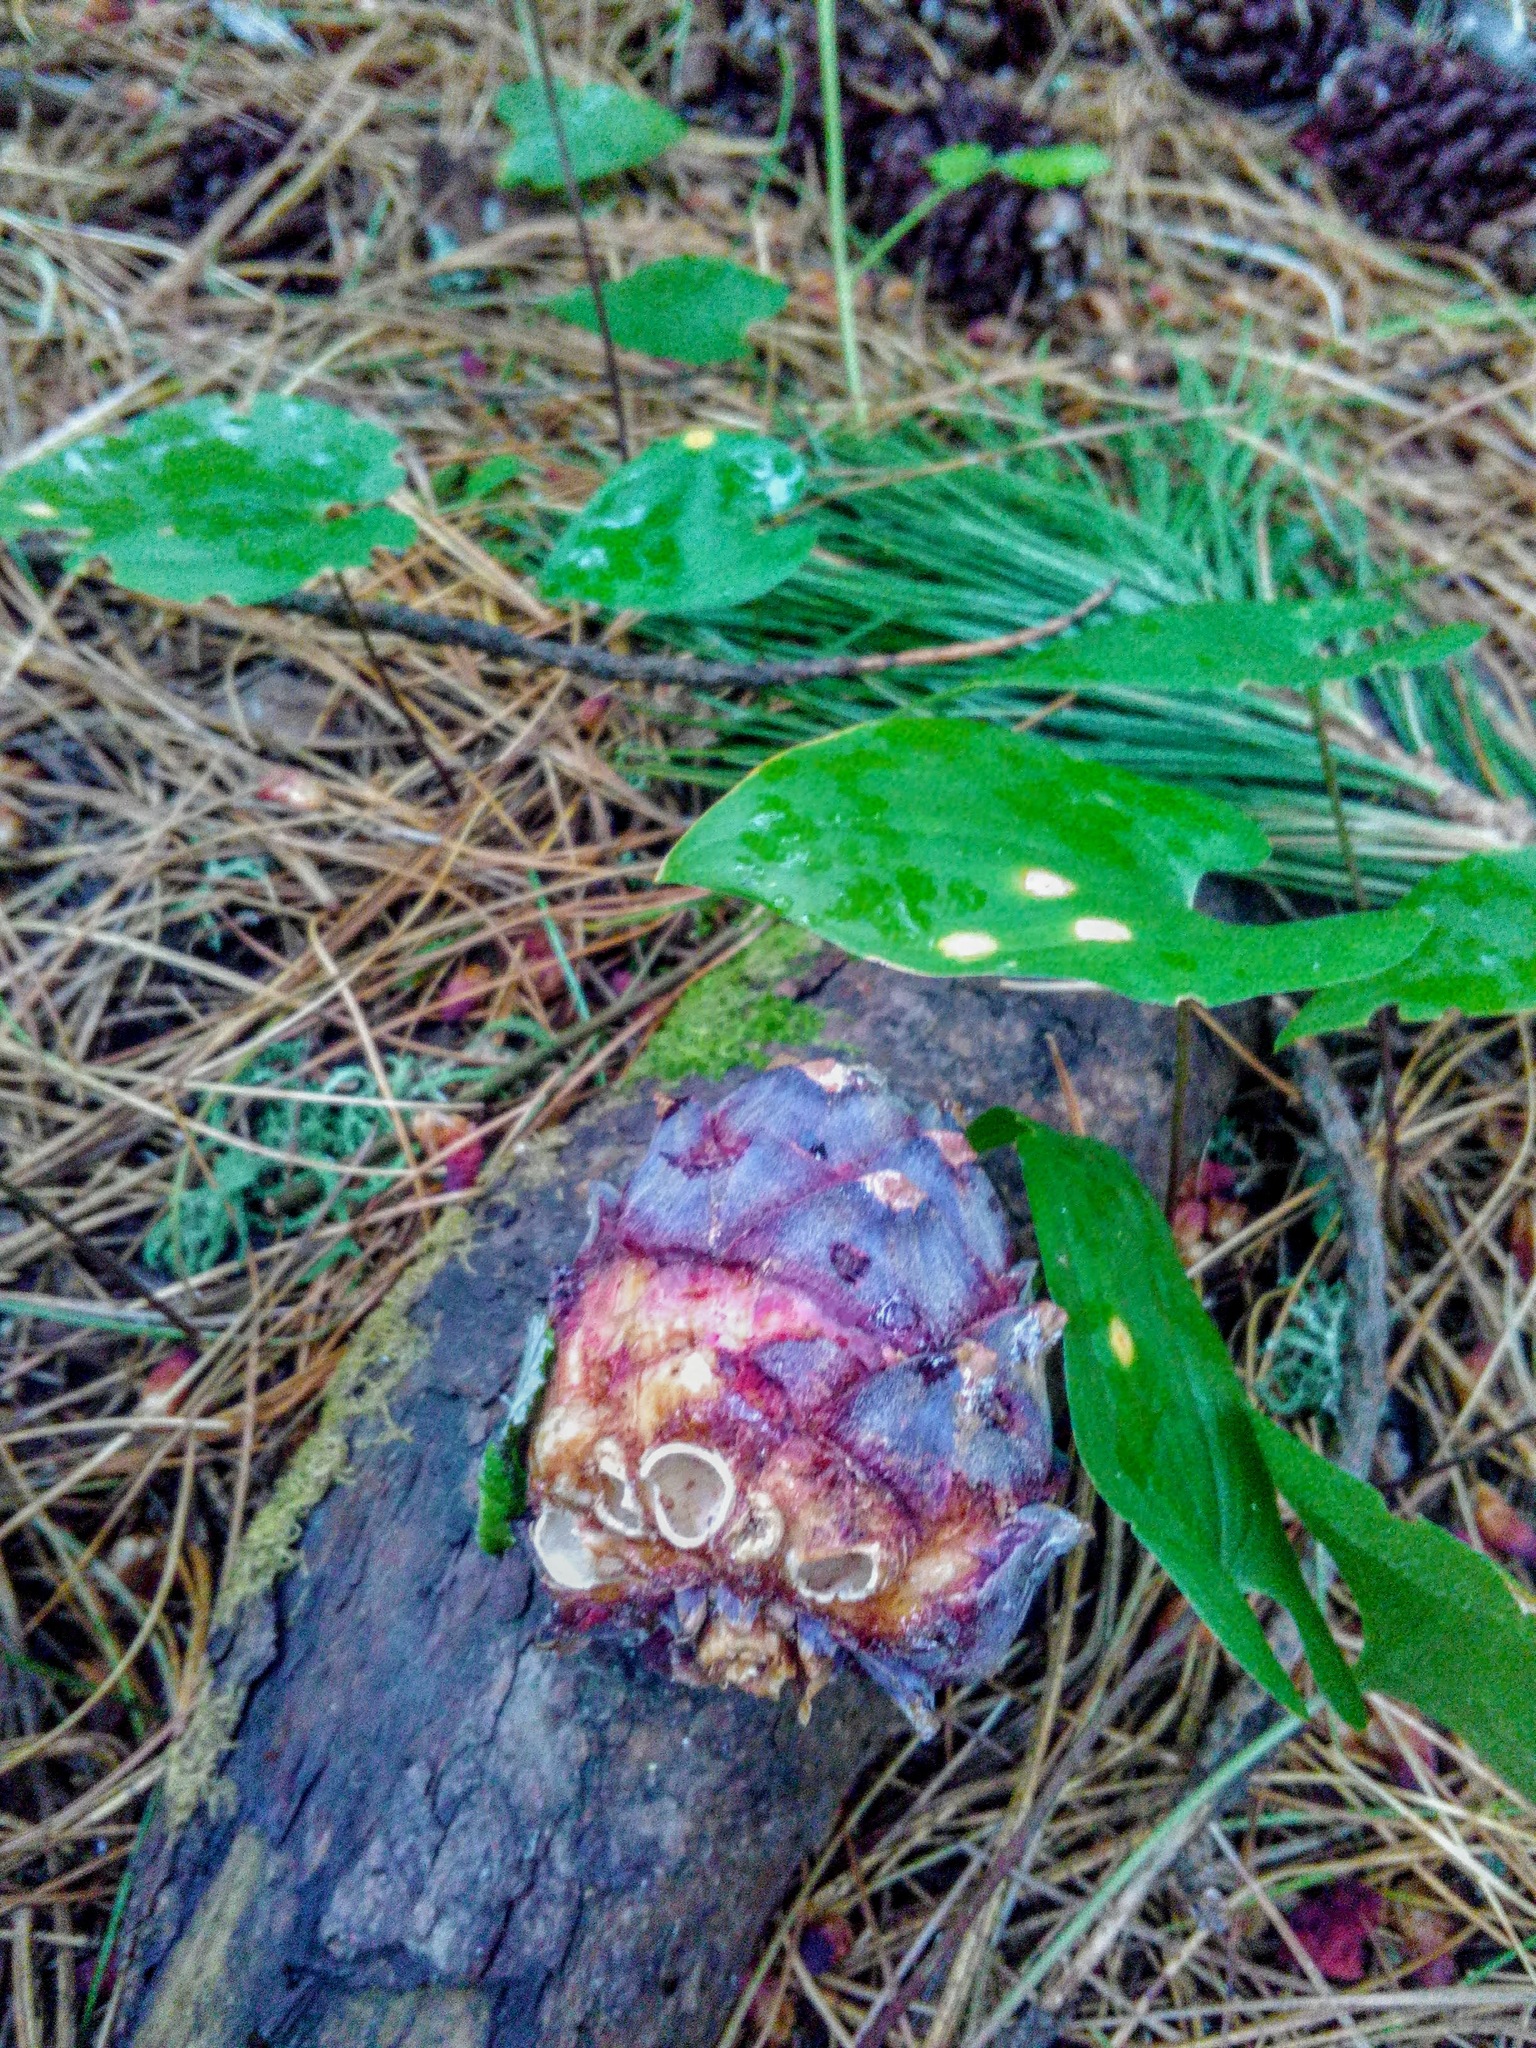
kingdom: Plantae
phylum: Tracheophyta
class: Pinopsida
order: Pinales
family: Pinaceae
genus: Pinus
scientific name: Pinus sibirica
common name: Siberian pine
